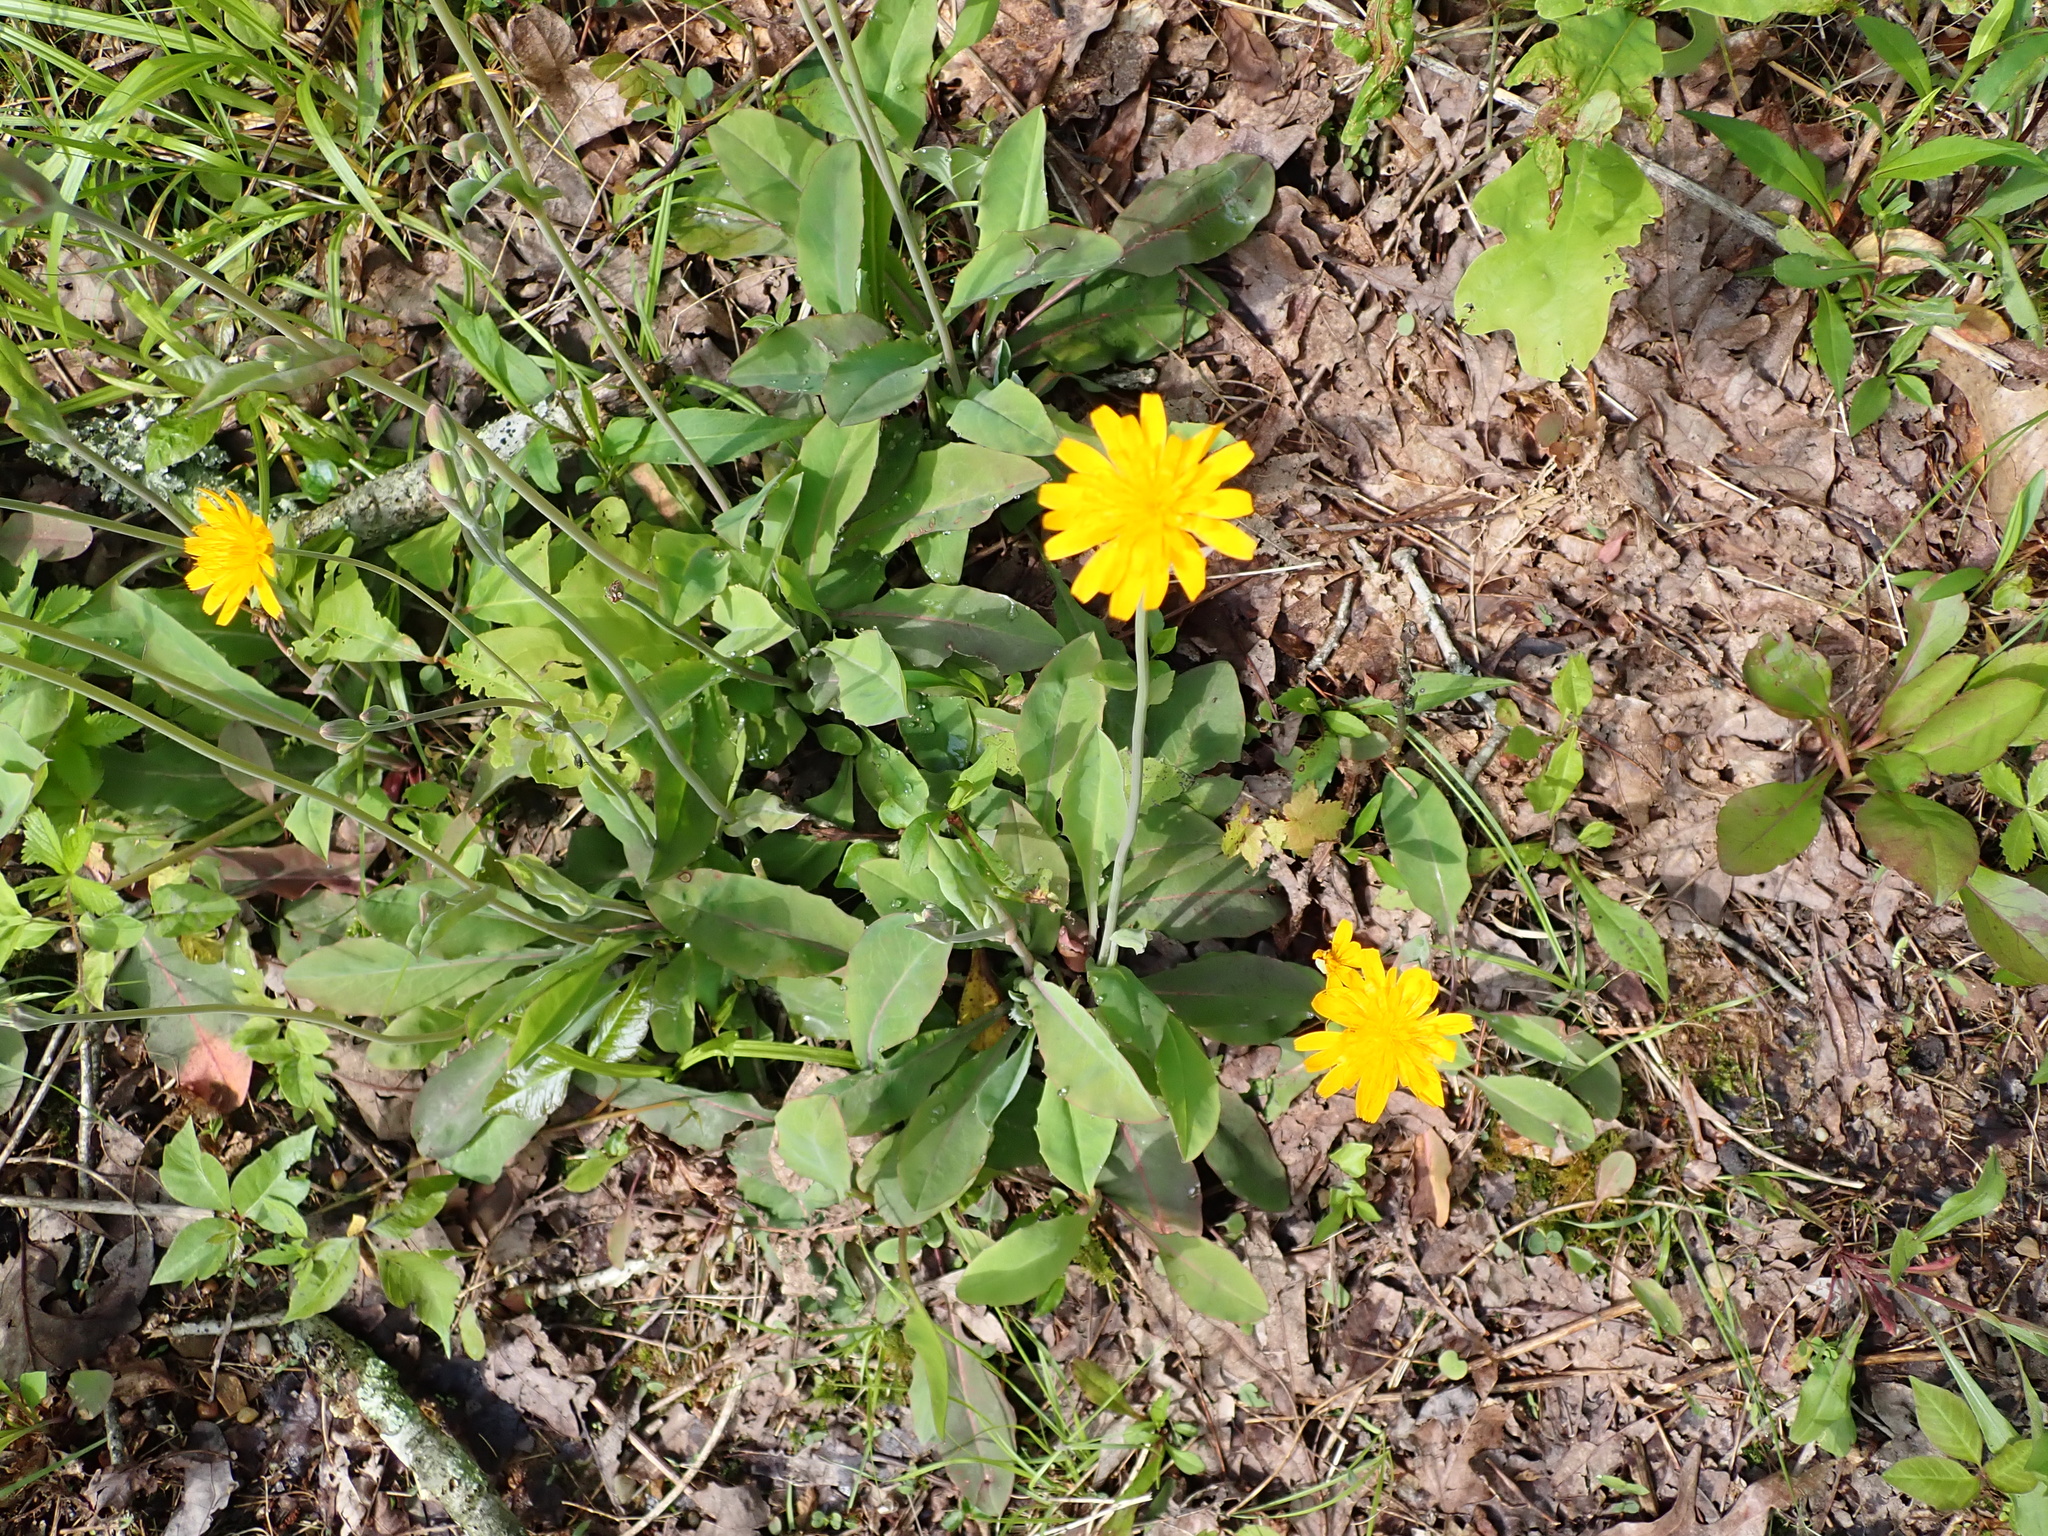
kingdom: Plantae
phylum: Tracheophyta
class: Magnoliopsida
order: Asterales
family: Asteraceae
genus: Krigia
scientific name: Krigia biflora
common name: Orange dwarf-dandelion
